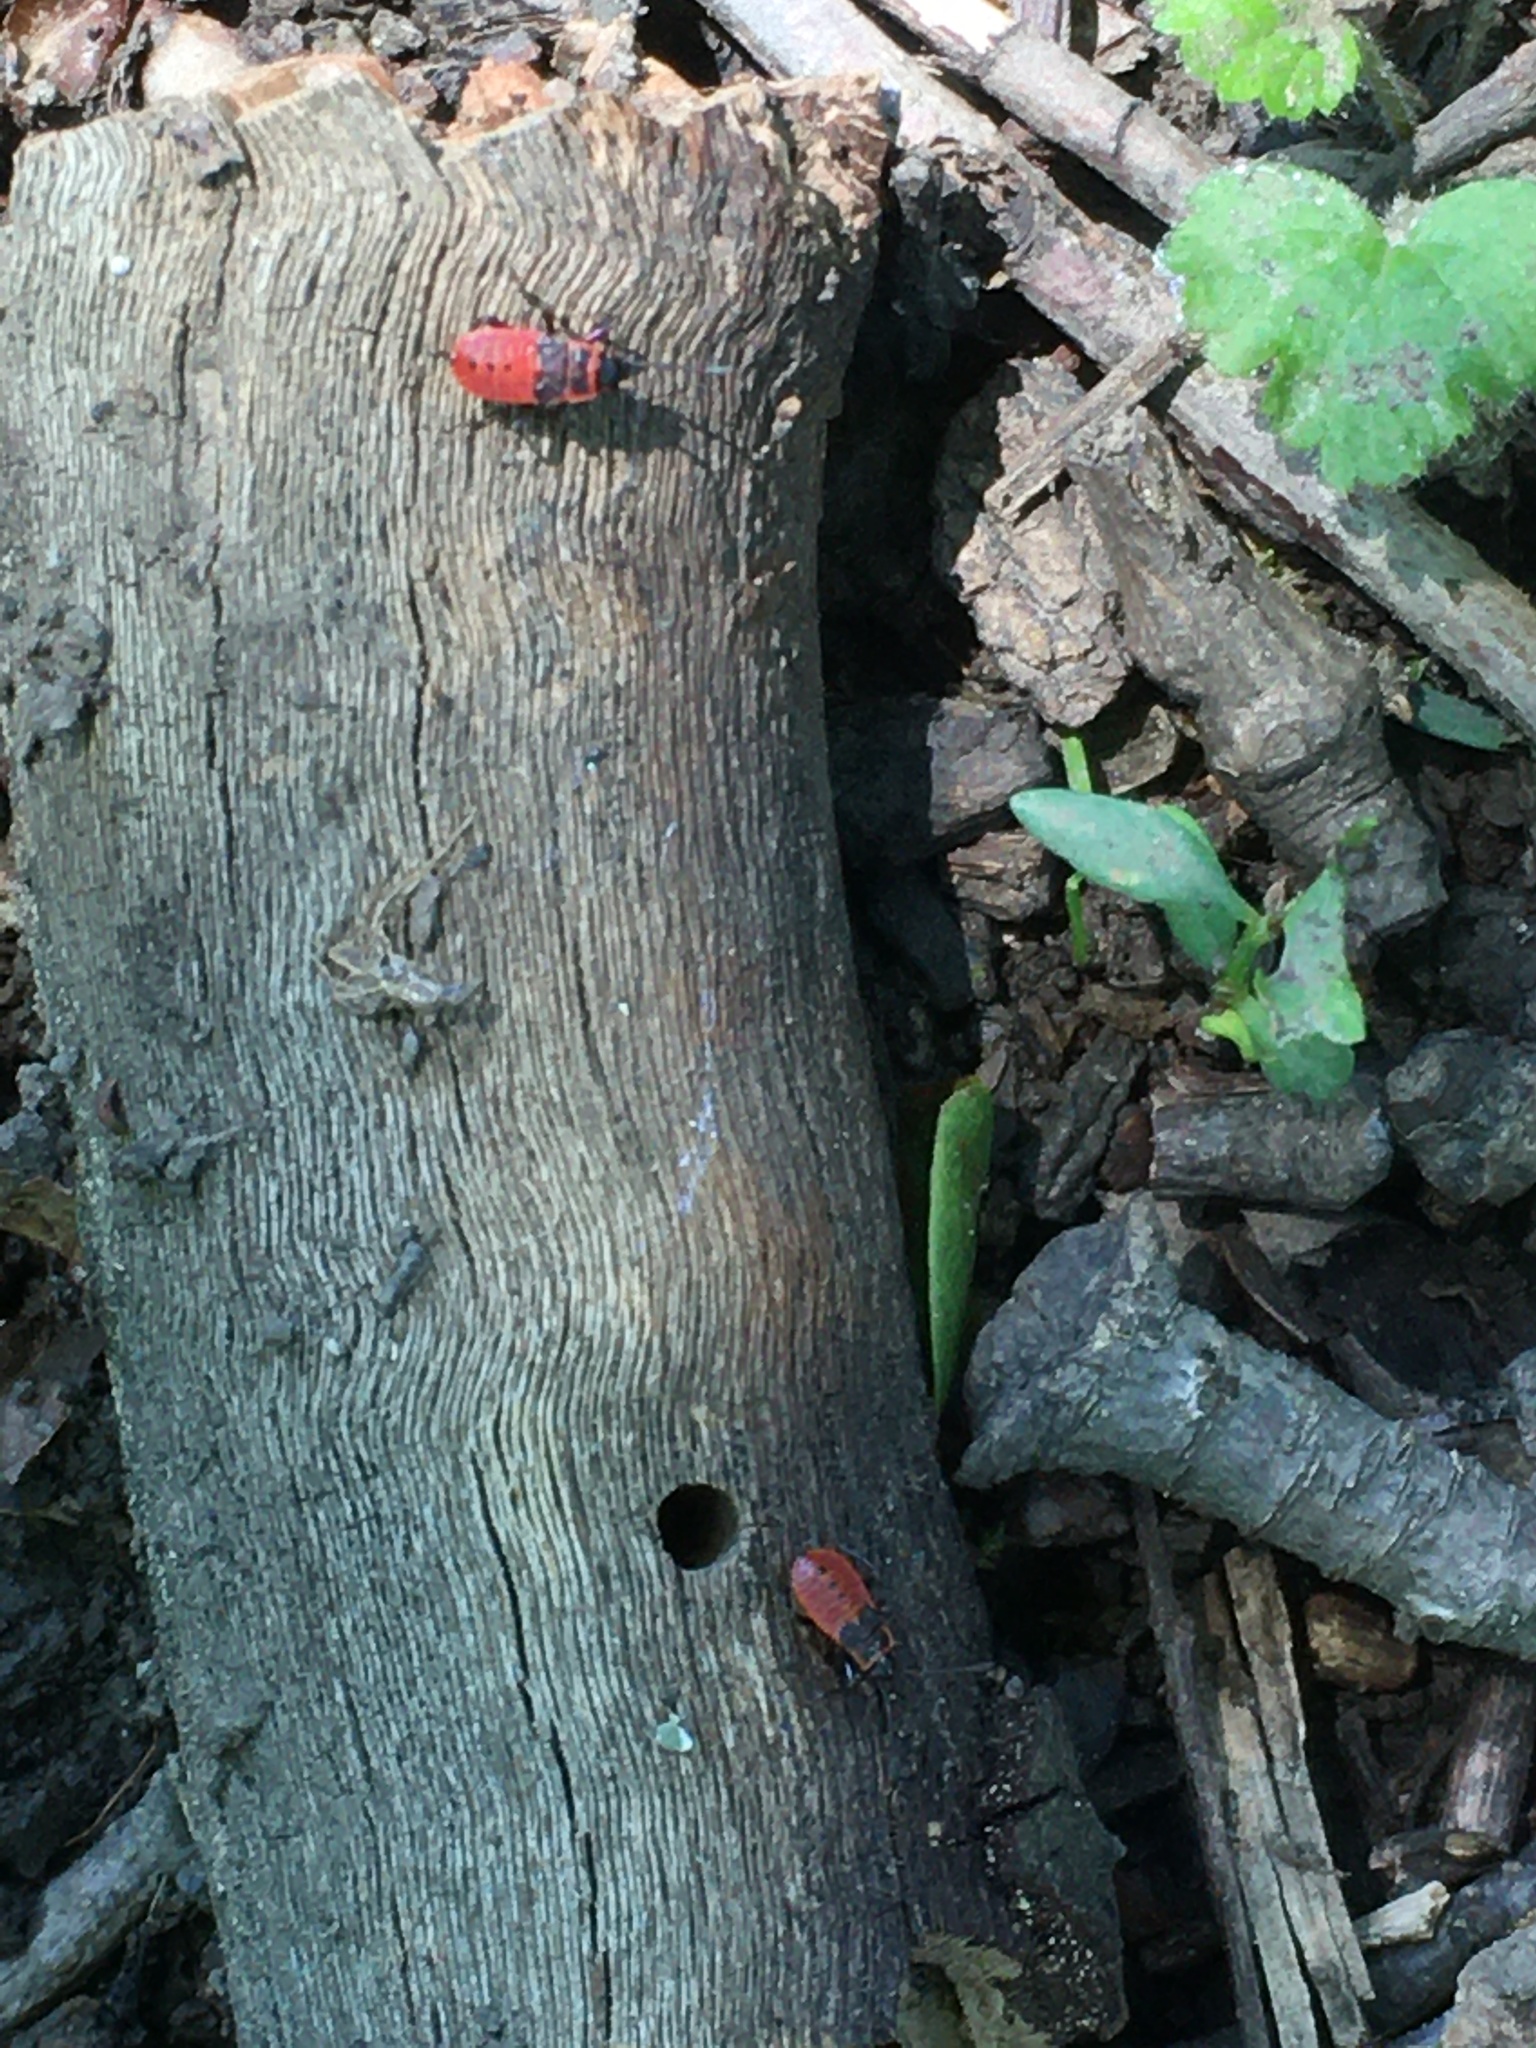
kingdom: Animalia
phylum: Arthropoda
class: Insecta
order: Hemiptera
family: Pyrrhocoridae
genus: Pyrrhocoris
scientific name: Pyrrhocoris apterus
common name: Firebug
